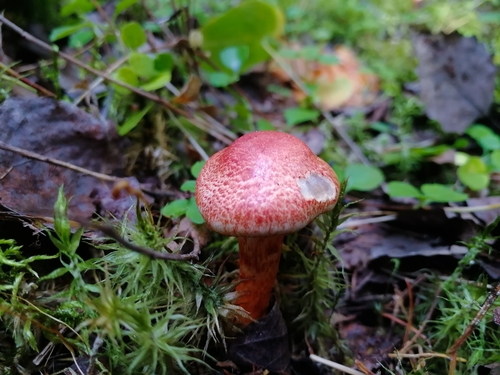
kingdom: Fungi
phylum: Basidiomycota
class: Agaricomycetes
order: Agaricales
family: Cortinariaceae
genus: Cortinarius
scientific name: Cortinarius bolaris
